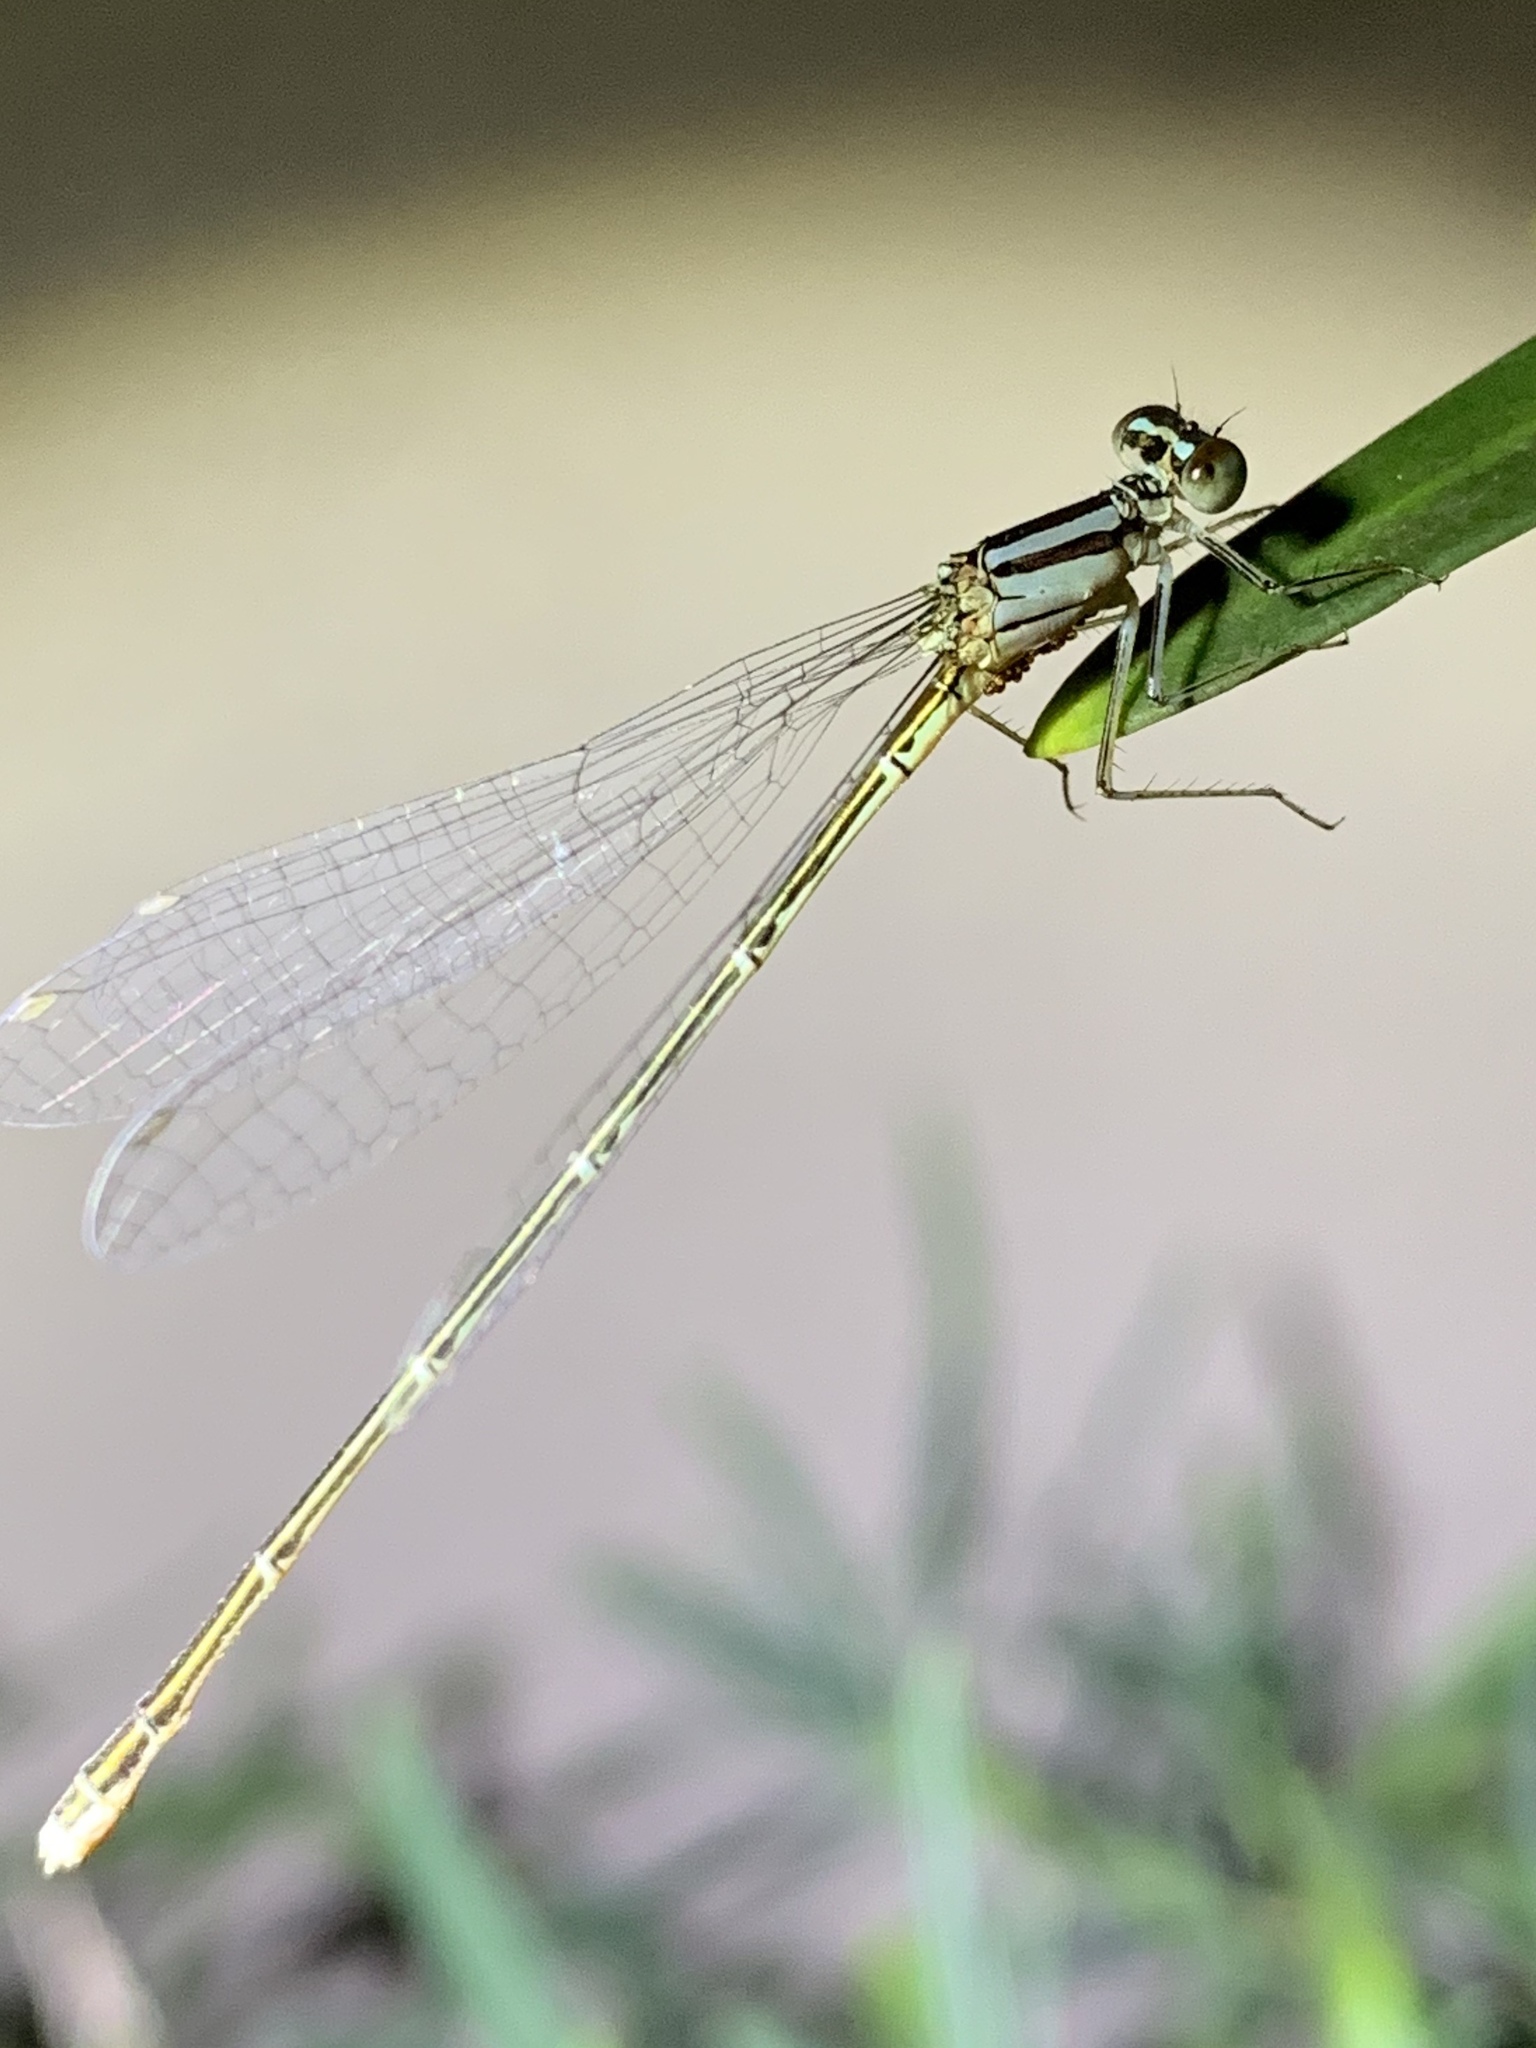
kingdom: Animalia
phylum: Arthropoda
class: Insecta
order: Odonata
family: Coenagrionidae
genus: Enallagma
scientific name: Enallagma pollutum
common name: Florida bluet
